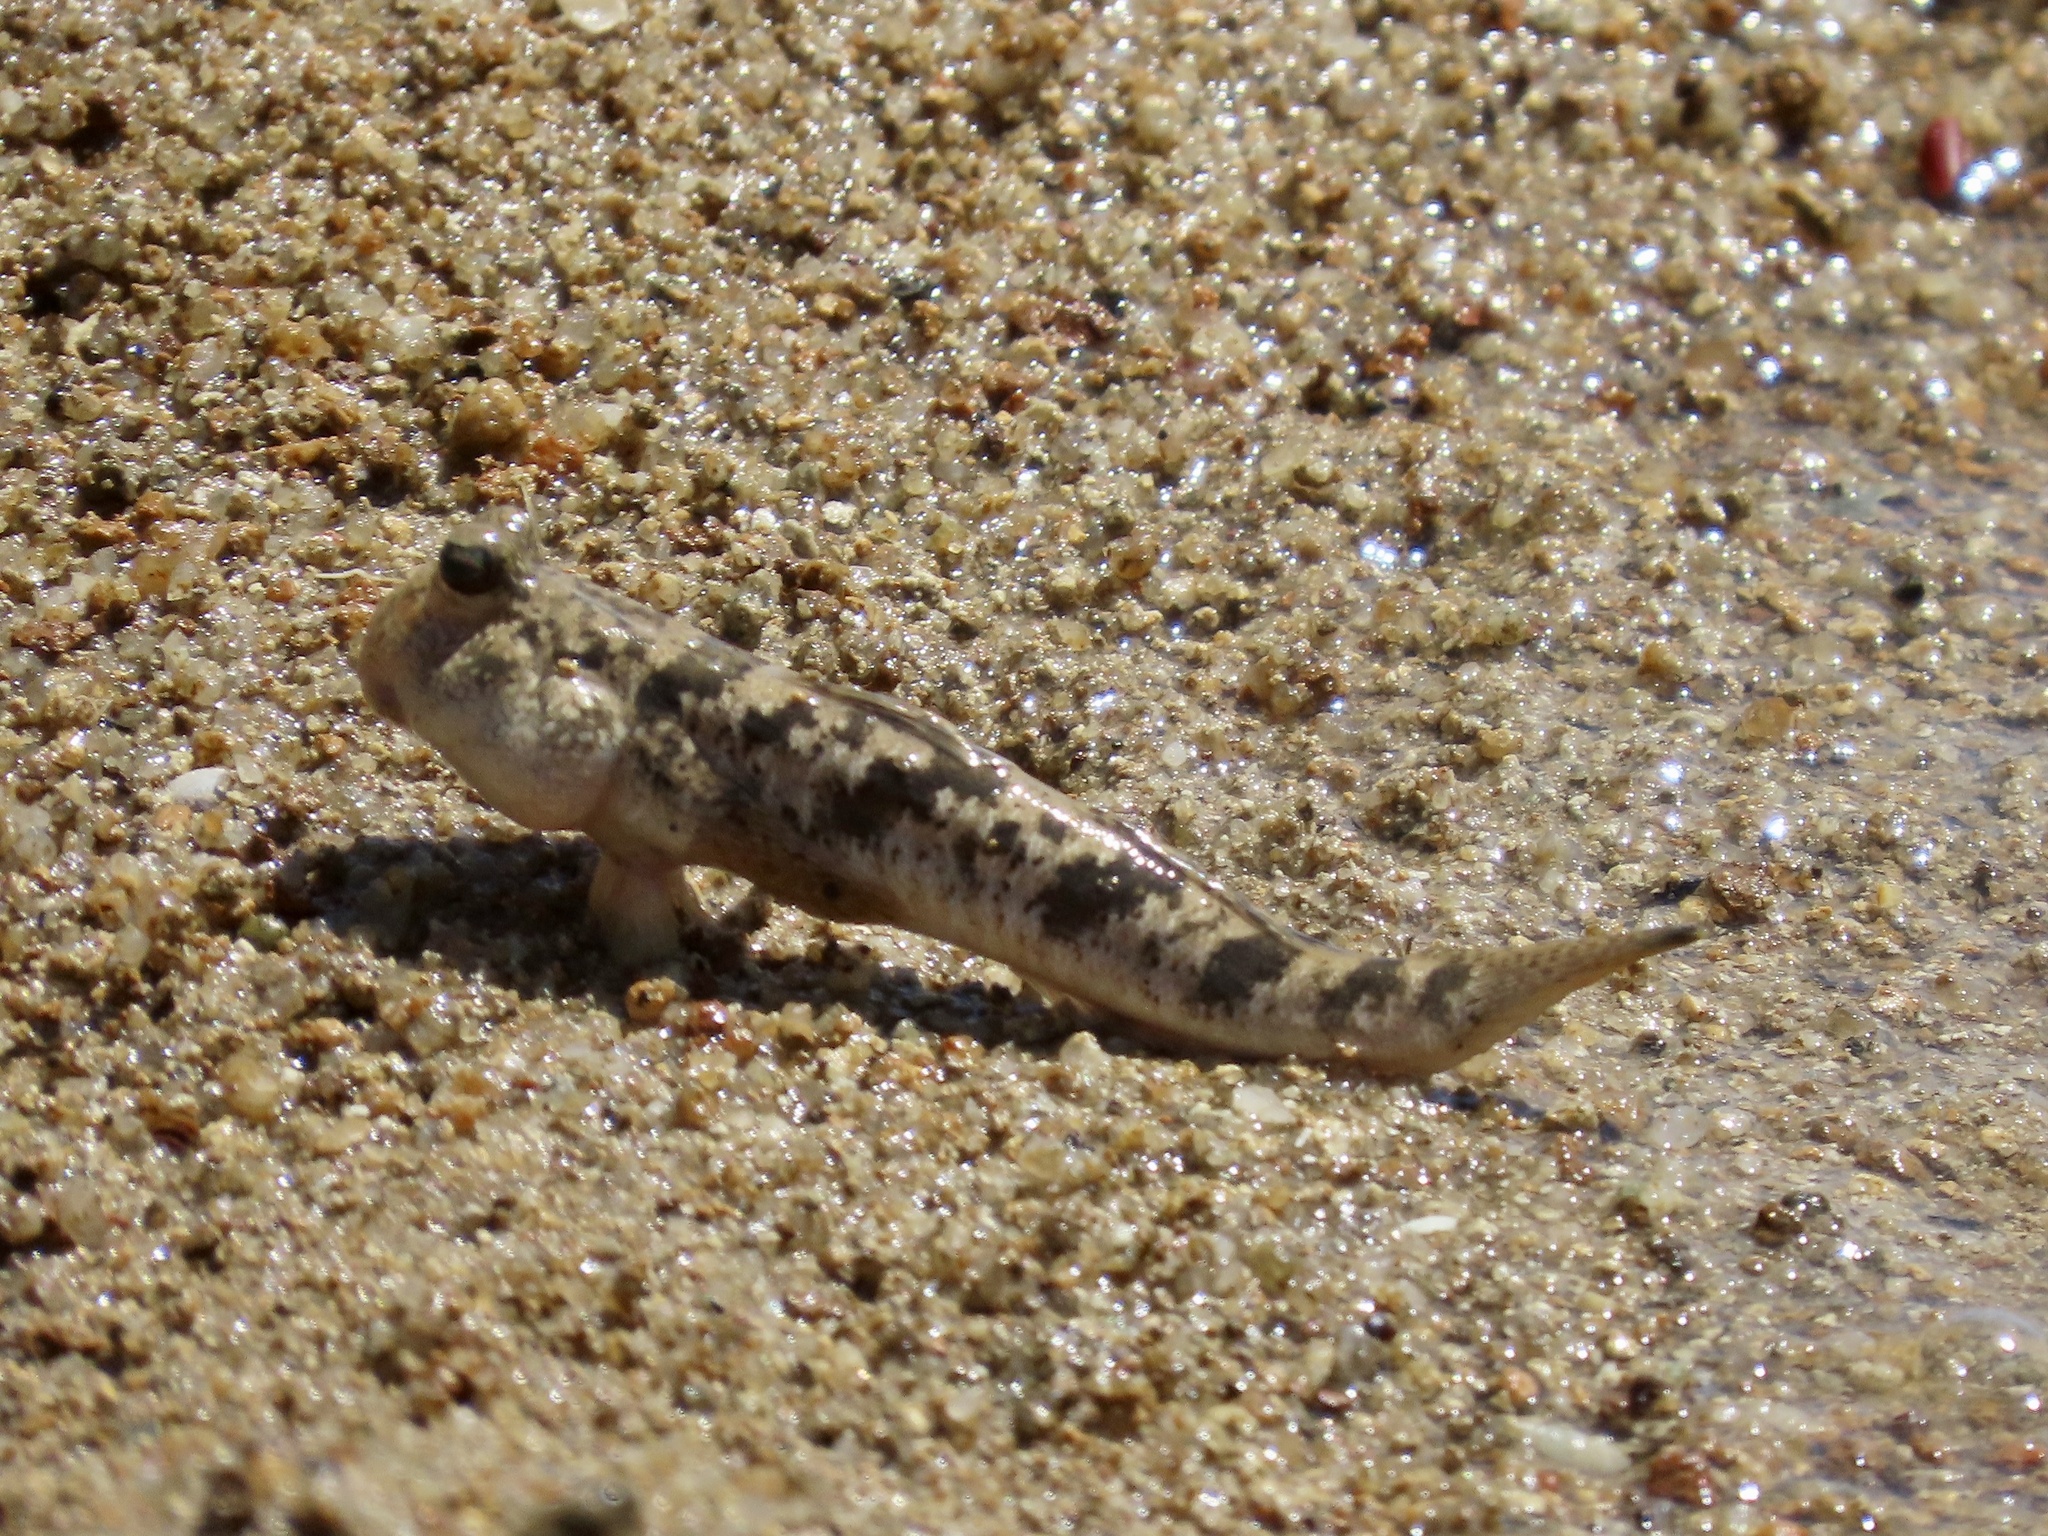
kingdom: Animalia
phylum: Chordata
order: Perciformes
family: Gobiidae
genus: Periophthalmus
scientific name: Periophthalmus modestus
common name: Black goby
